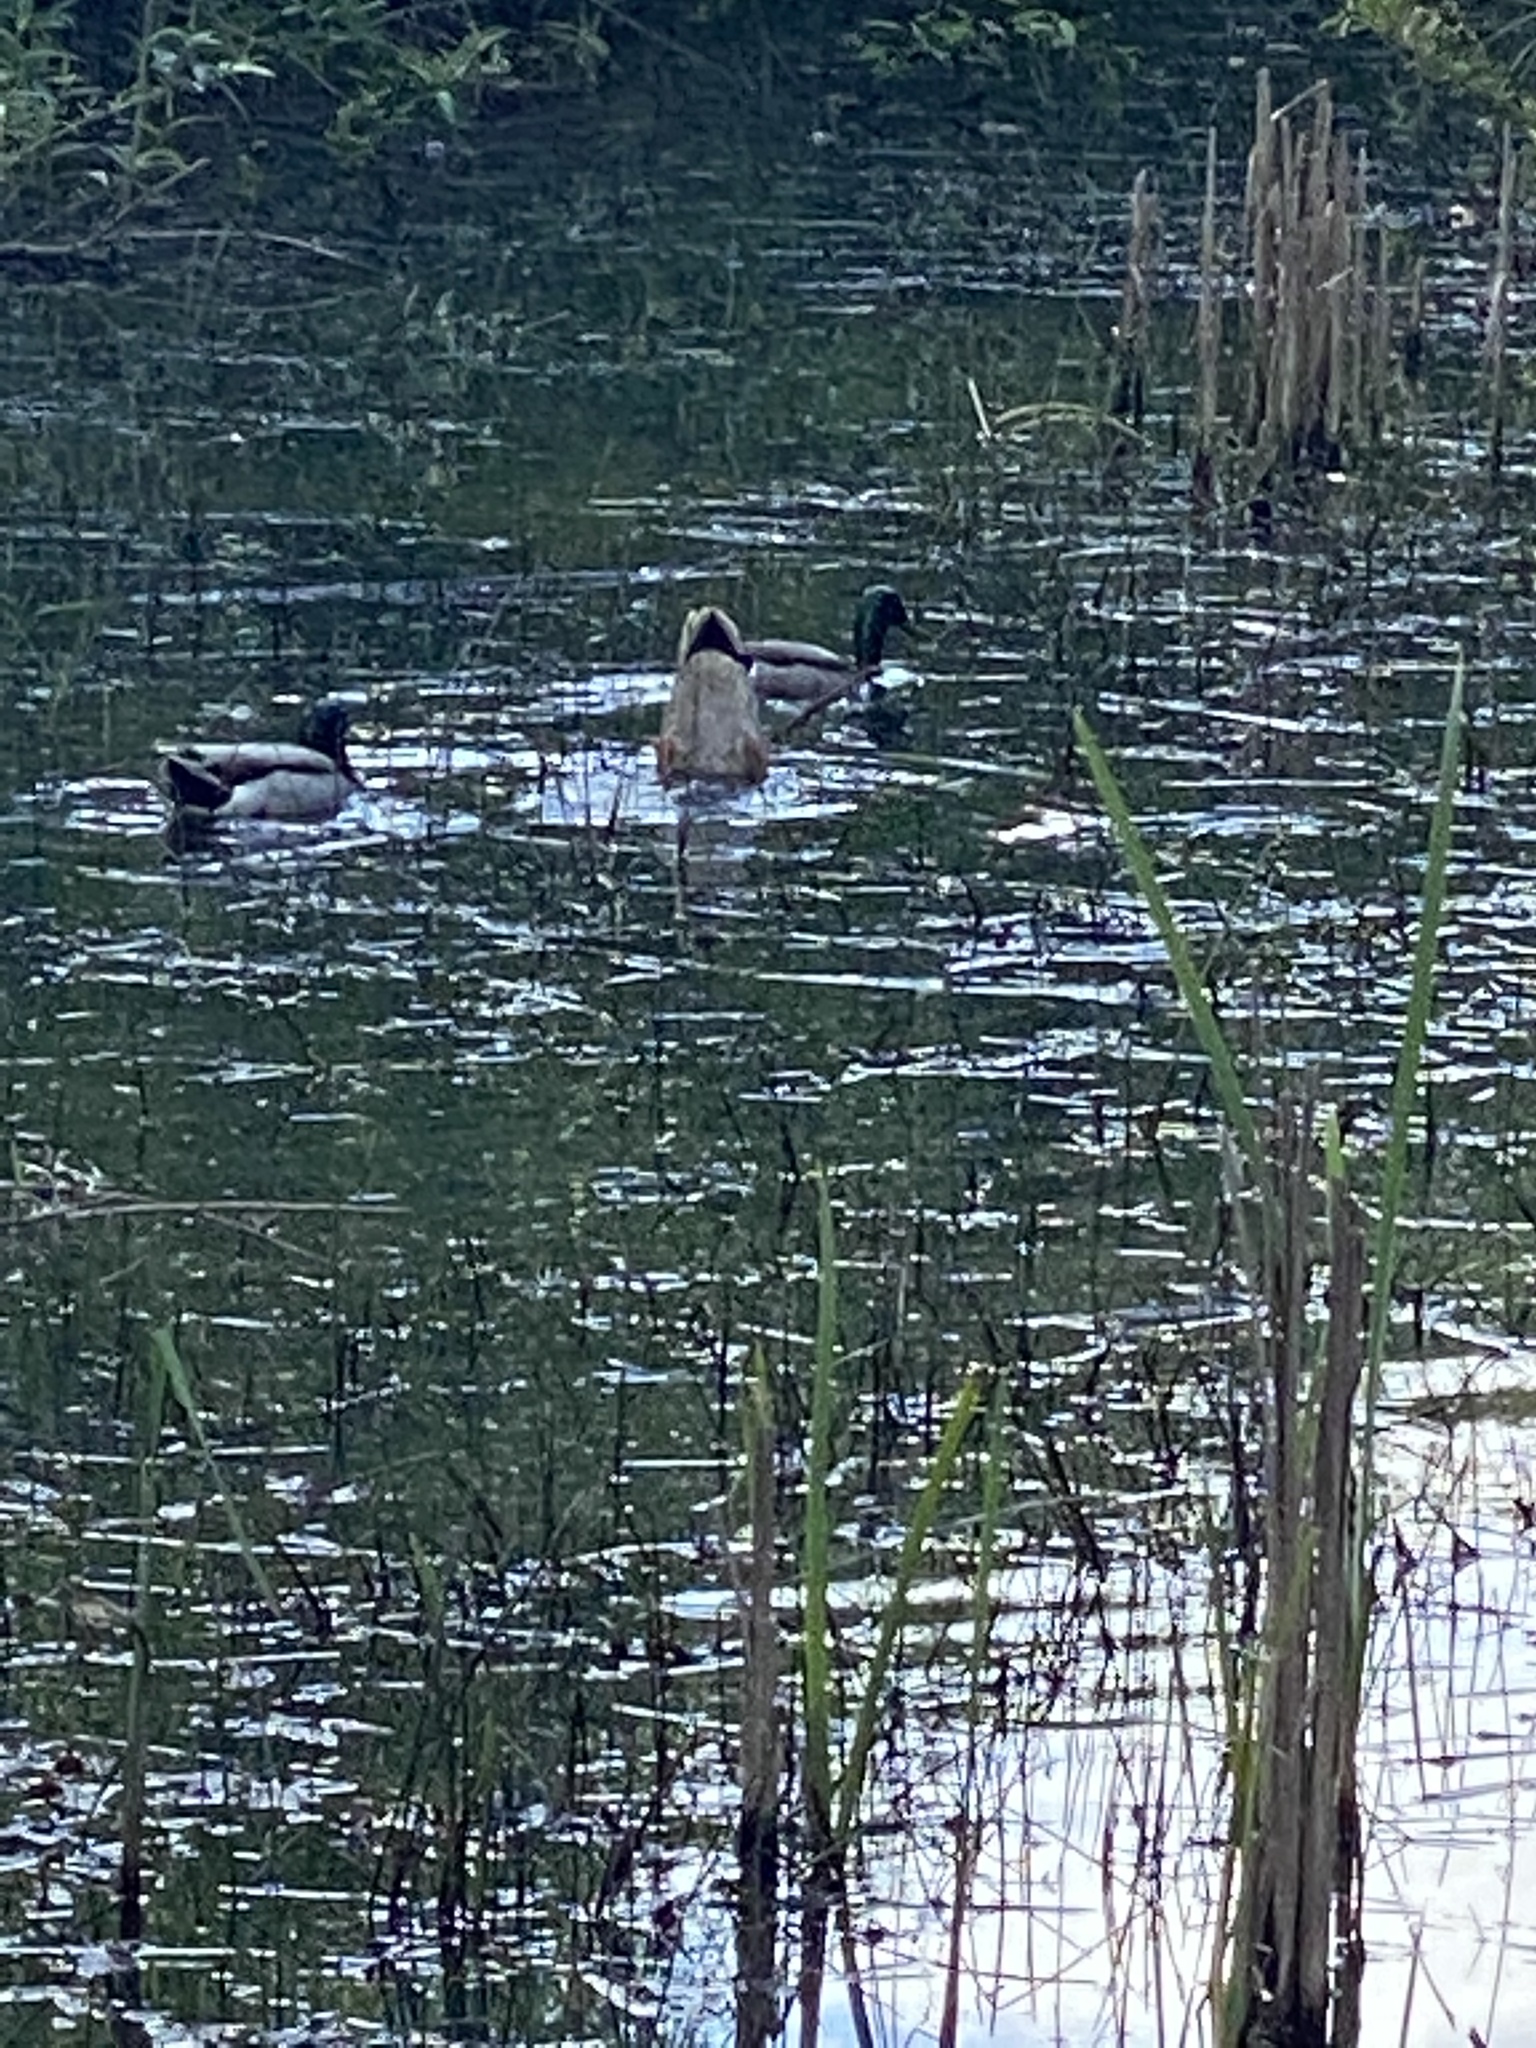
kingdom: Animalia
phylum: Chordata
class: Aves
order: Anseriformes
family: Anatidae
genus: Anas
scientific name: Anas platyrhynchos
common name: Mallard
